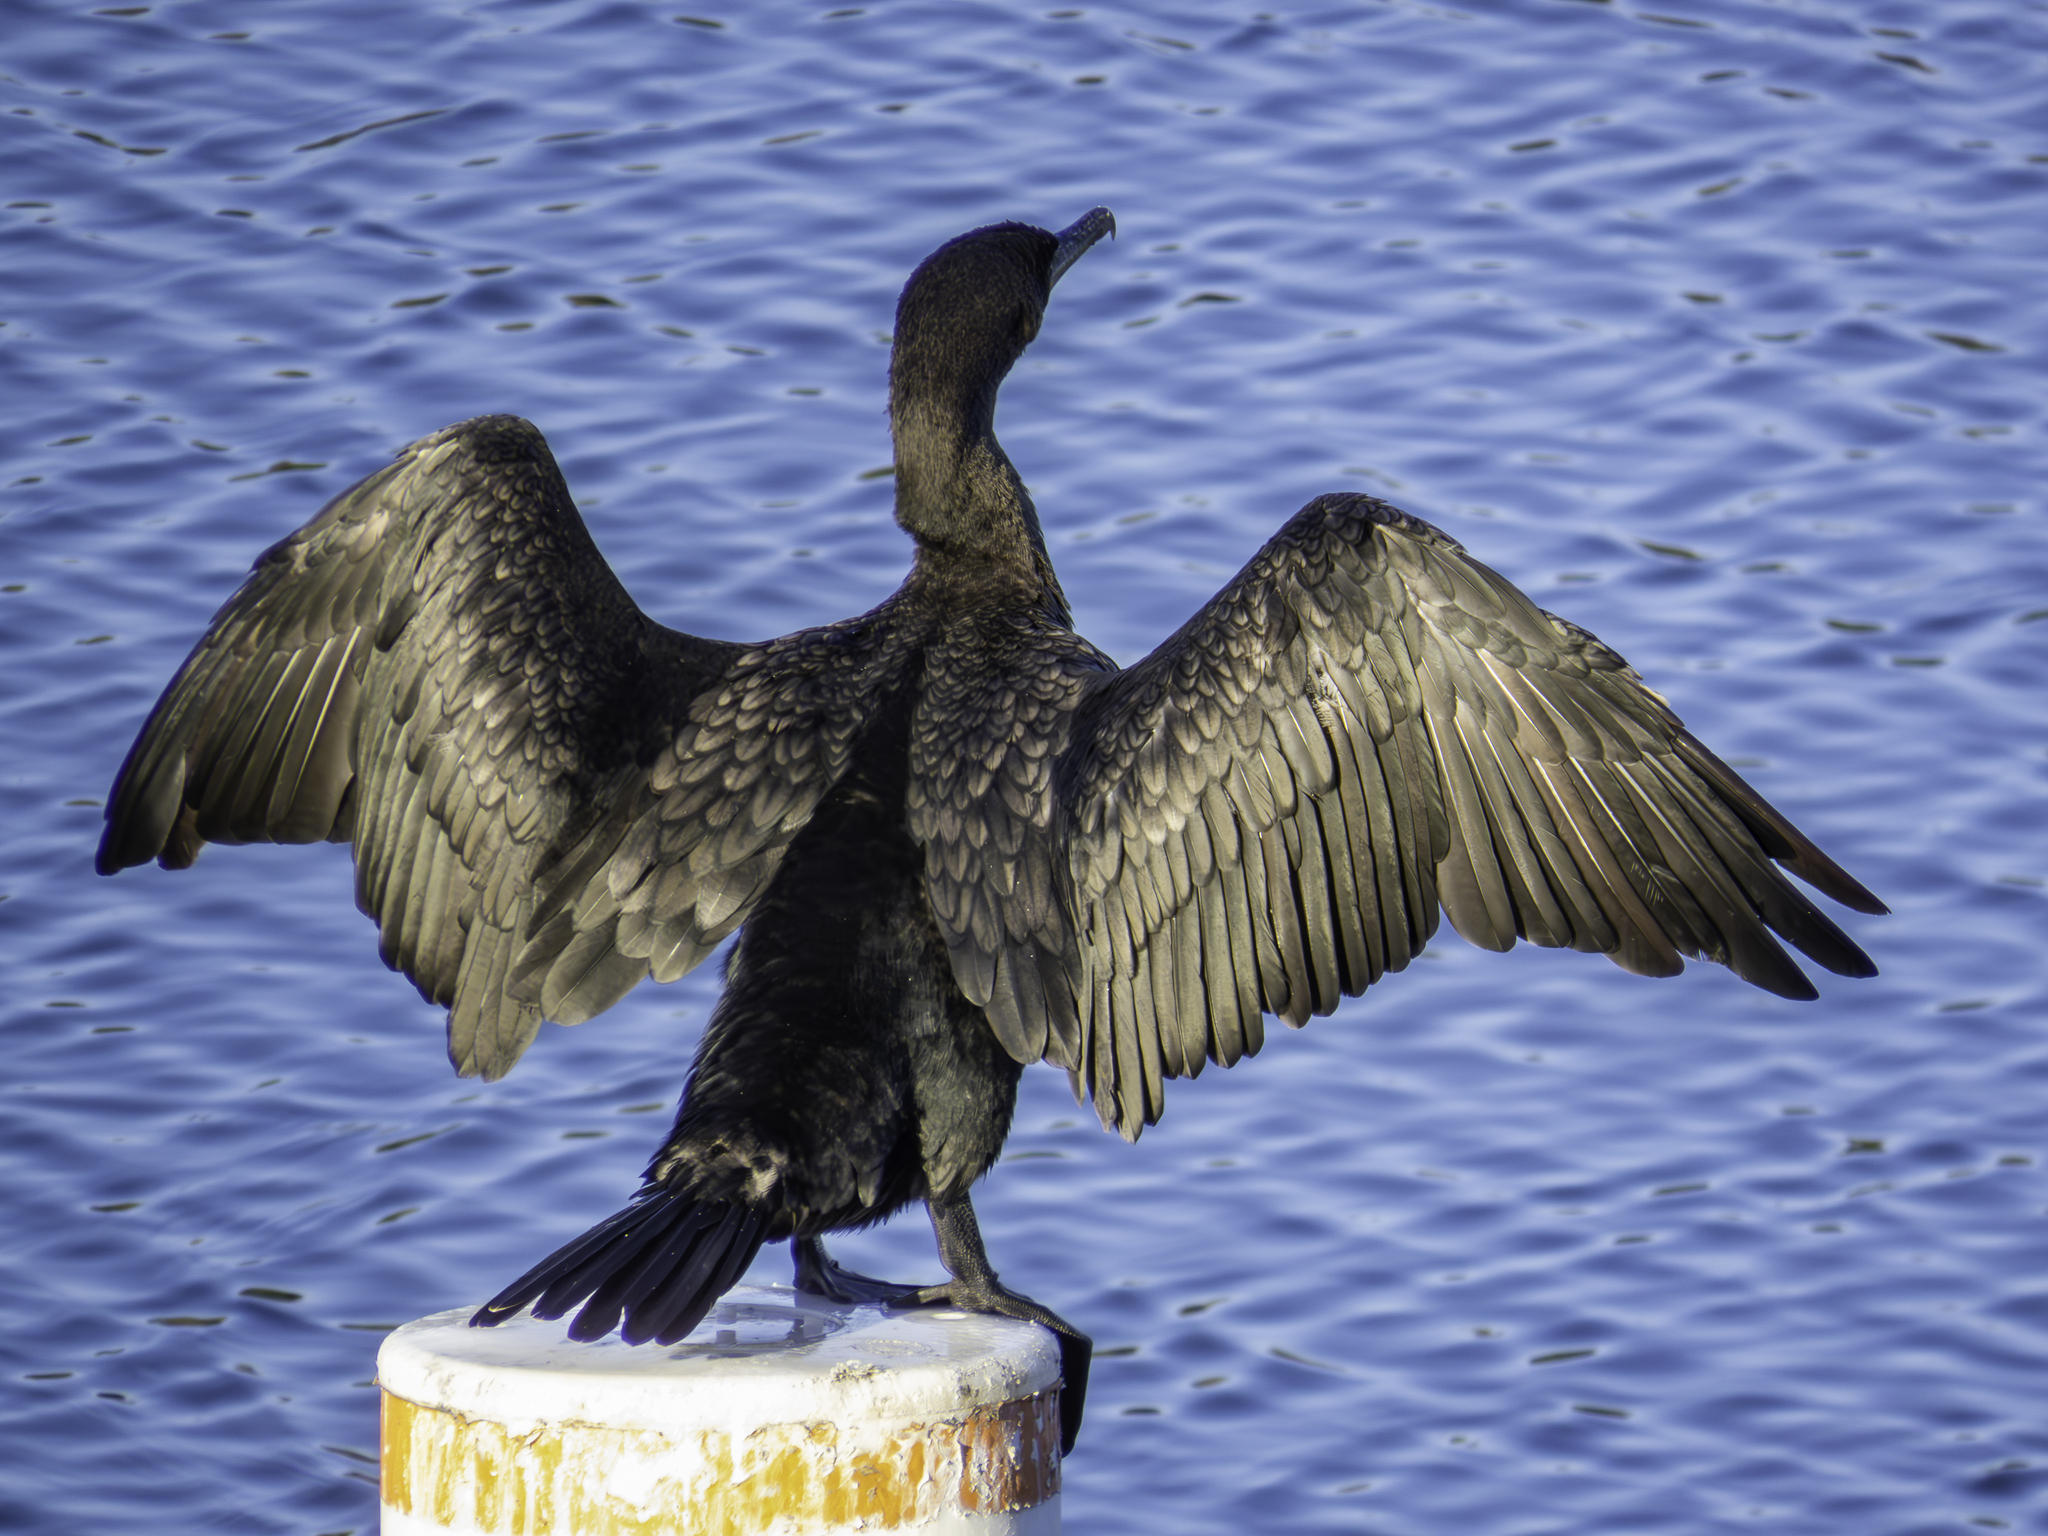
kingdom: Animalia
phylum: Chordata
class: Aves
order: Suliformes
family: Phalacrocoracidae
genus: Phalacrocorax
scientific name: Phalacrocorax auritus
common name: Double-crested cormorant
